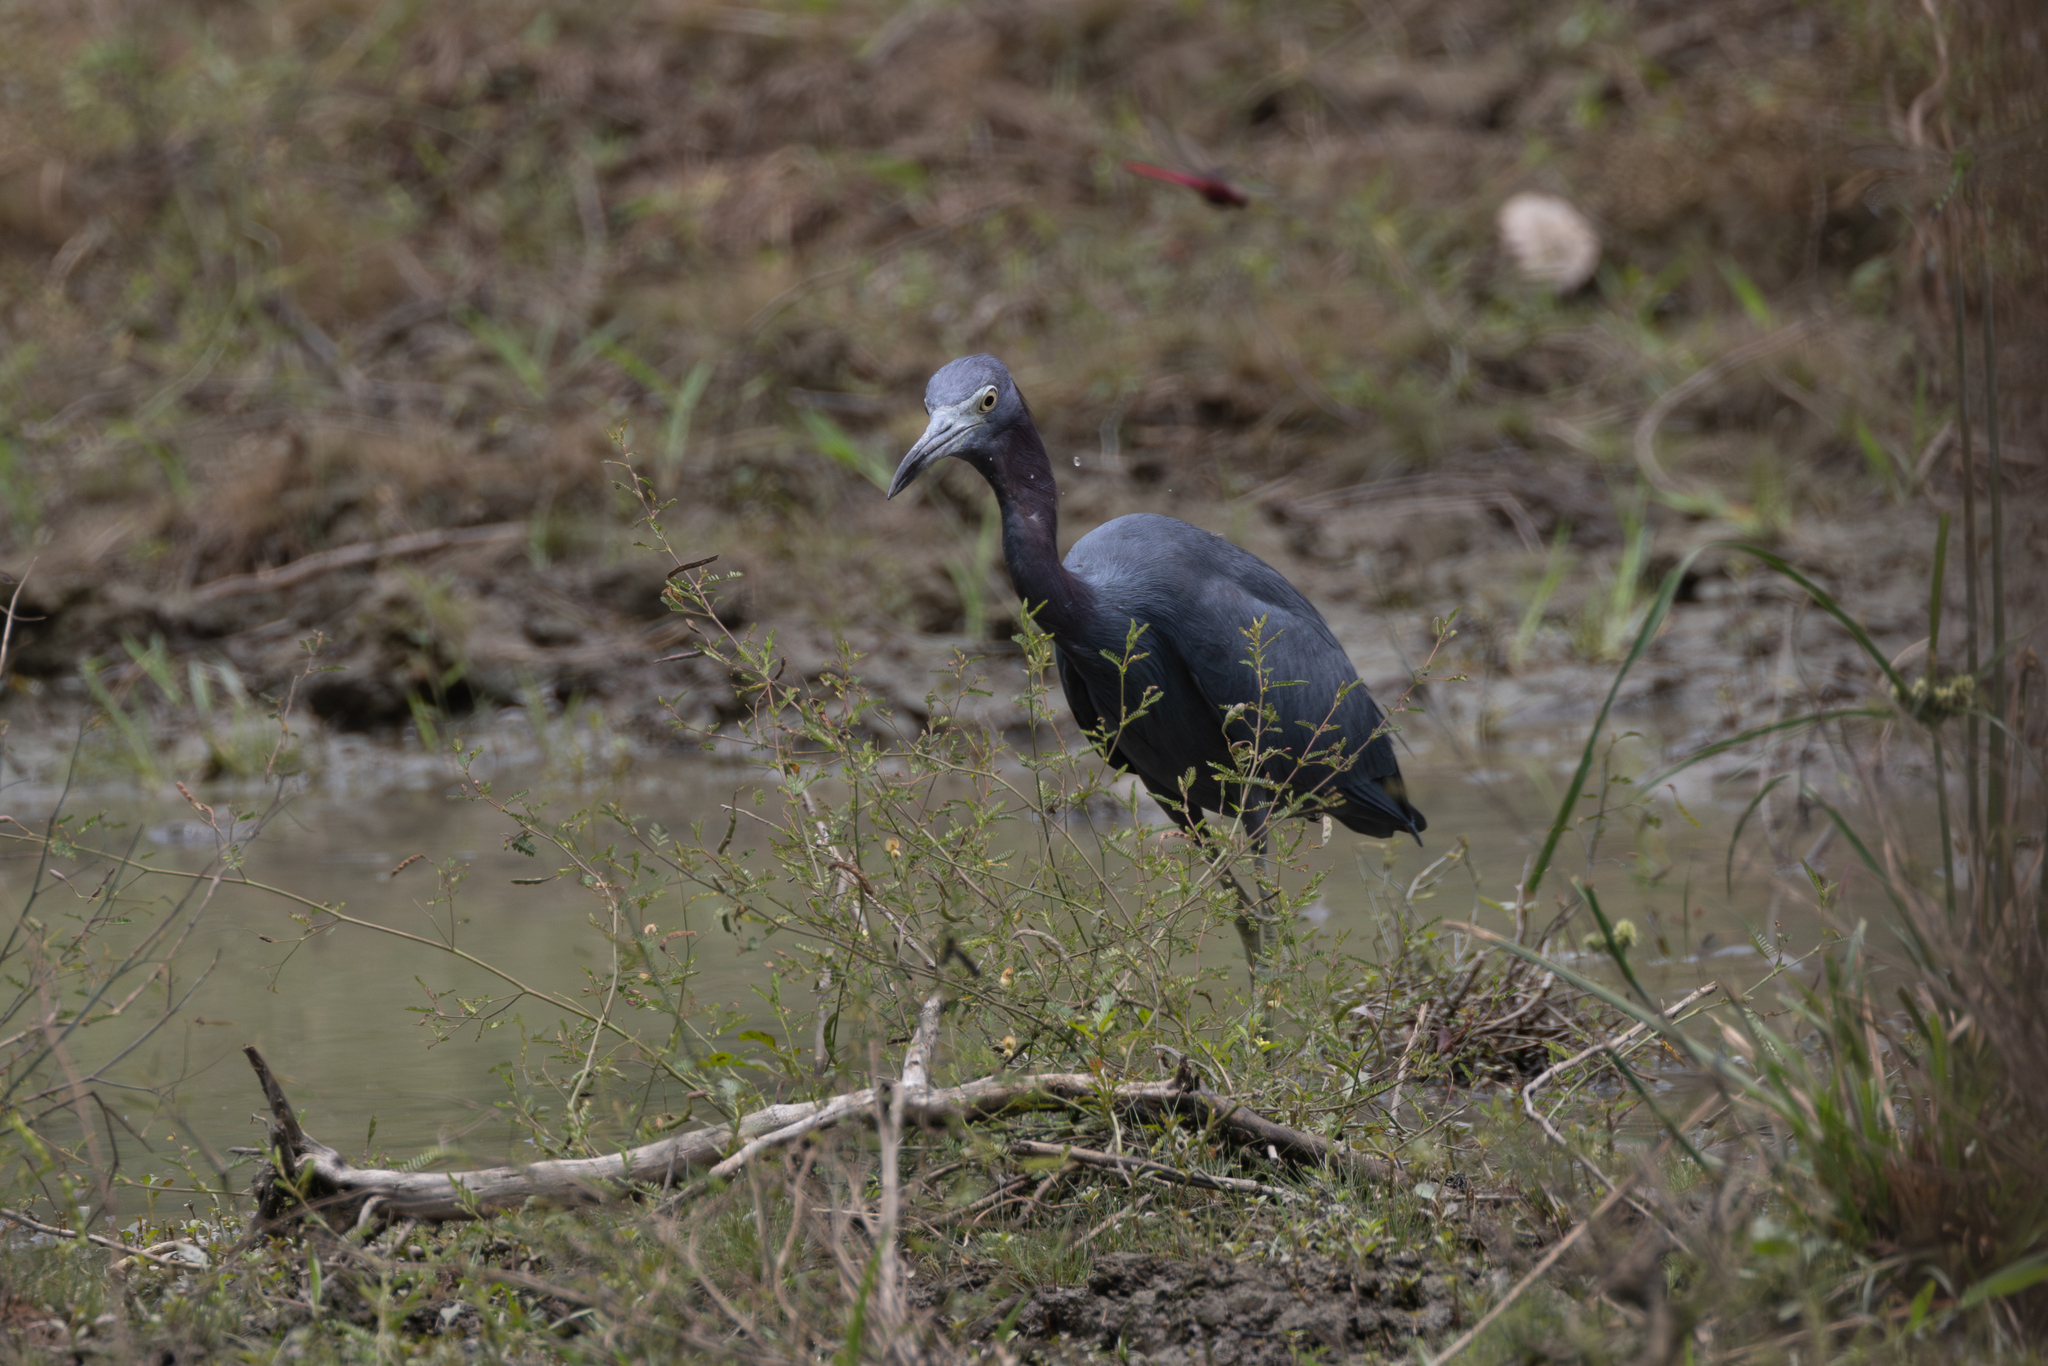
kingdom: Animalia
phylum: Chordata
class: Aves
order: Pelecaniformes
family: Ardeidae
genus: Egretta
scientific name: Egretta caerulea
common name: Little blue heron
